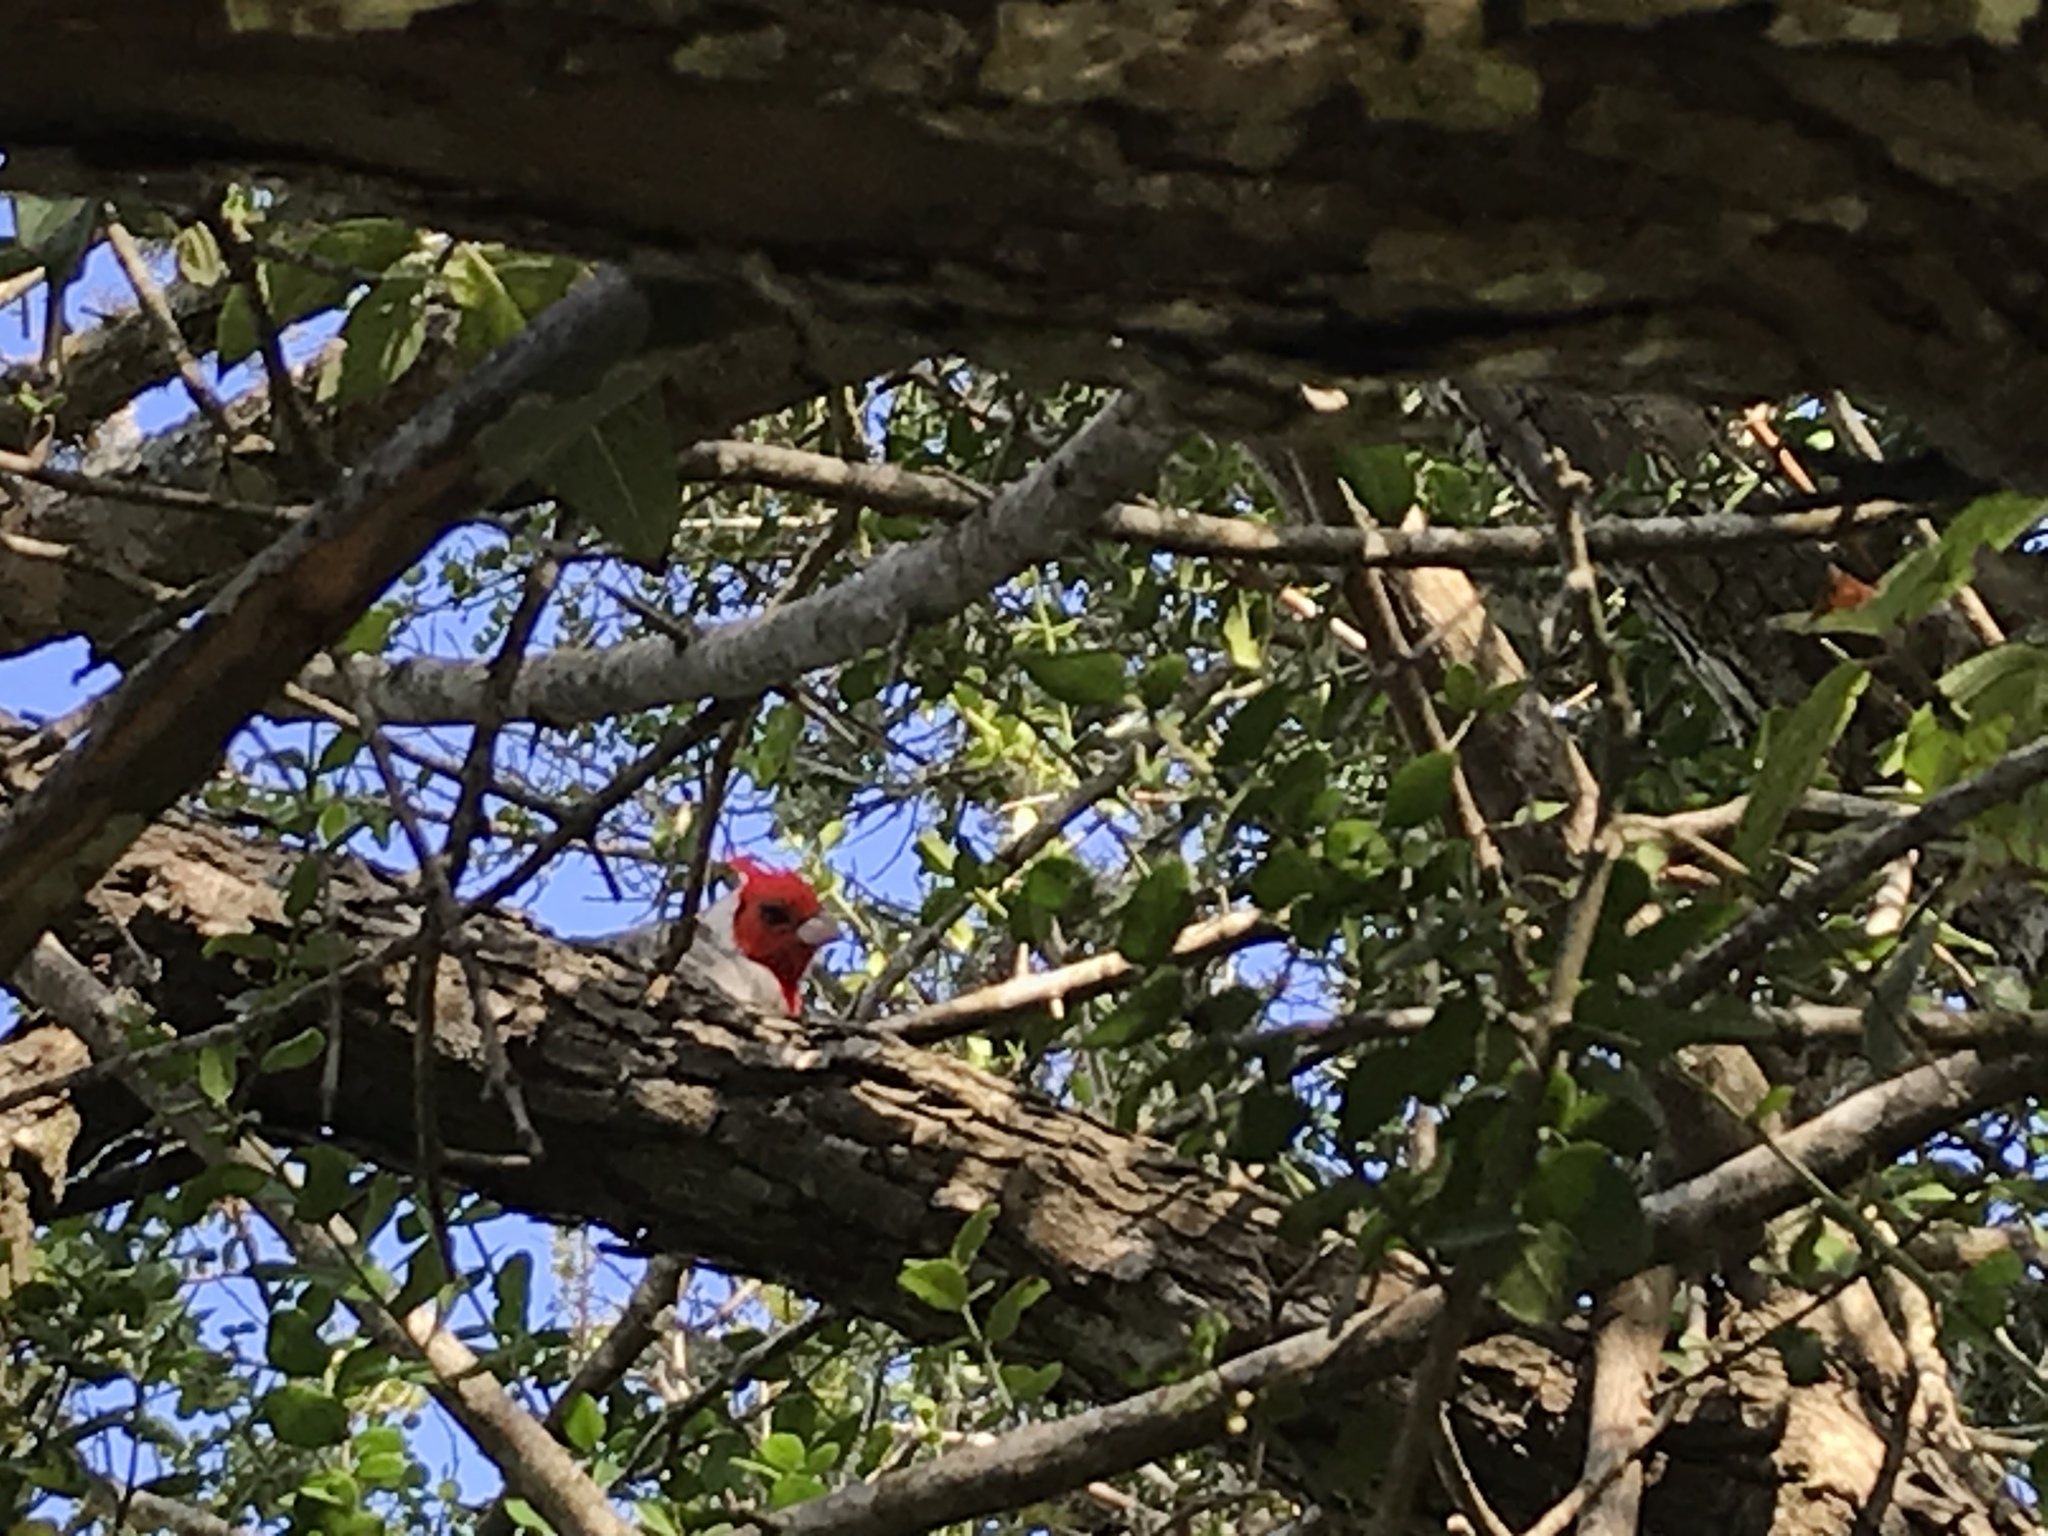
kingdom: Animalia
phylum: Chordata
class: Aves
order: Passeriformes
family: Thraupidae
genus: Paroaria
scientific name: Paroaria coronata
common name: Red-crested cardinal
